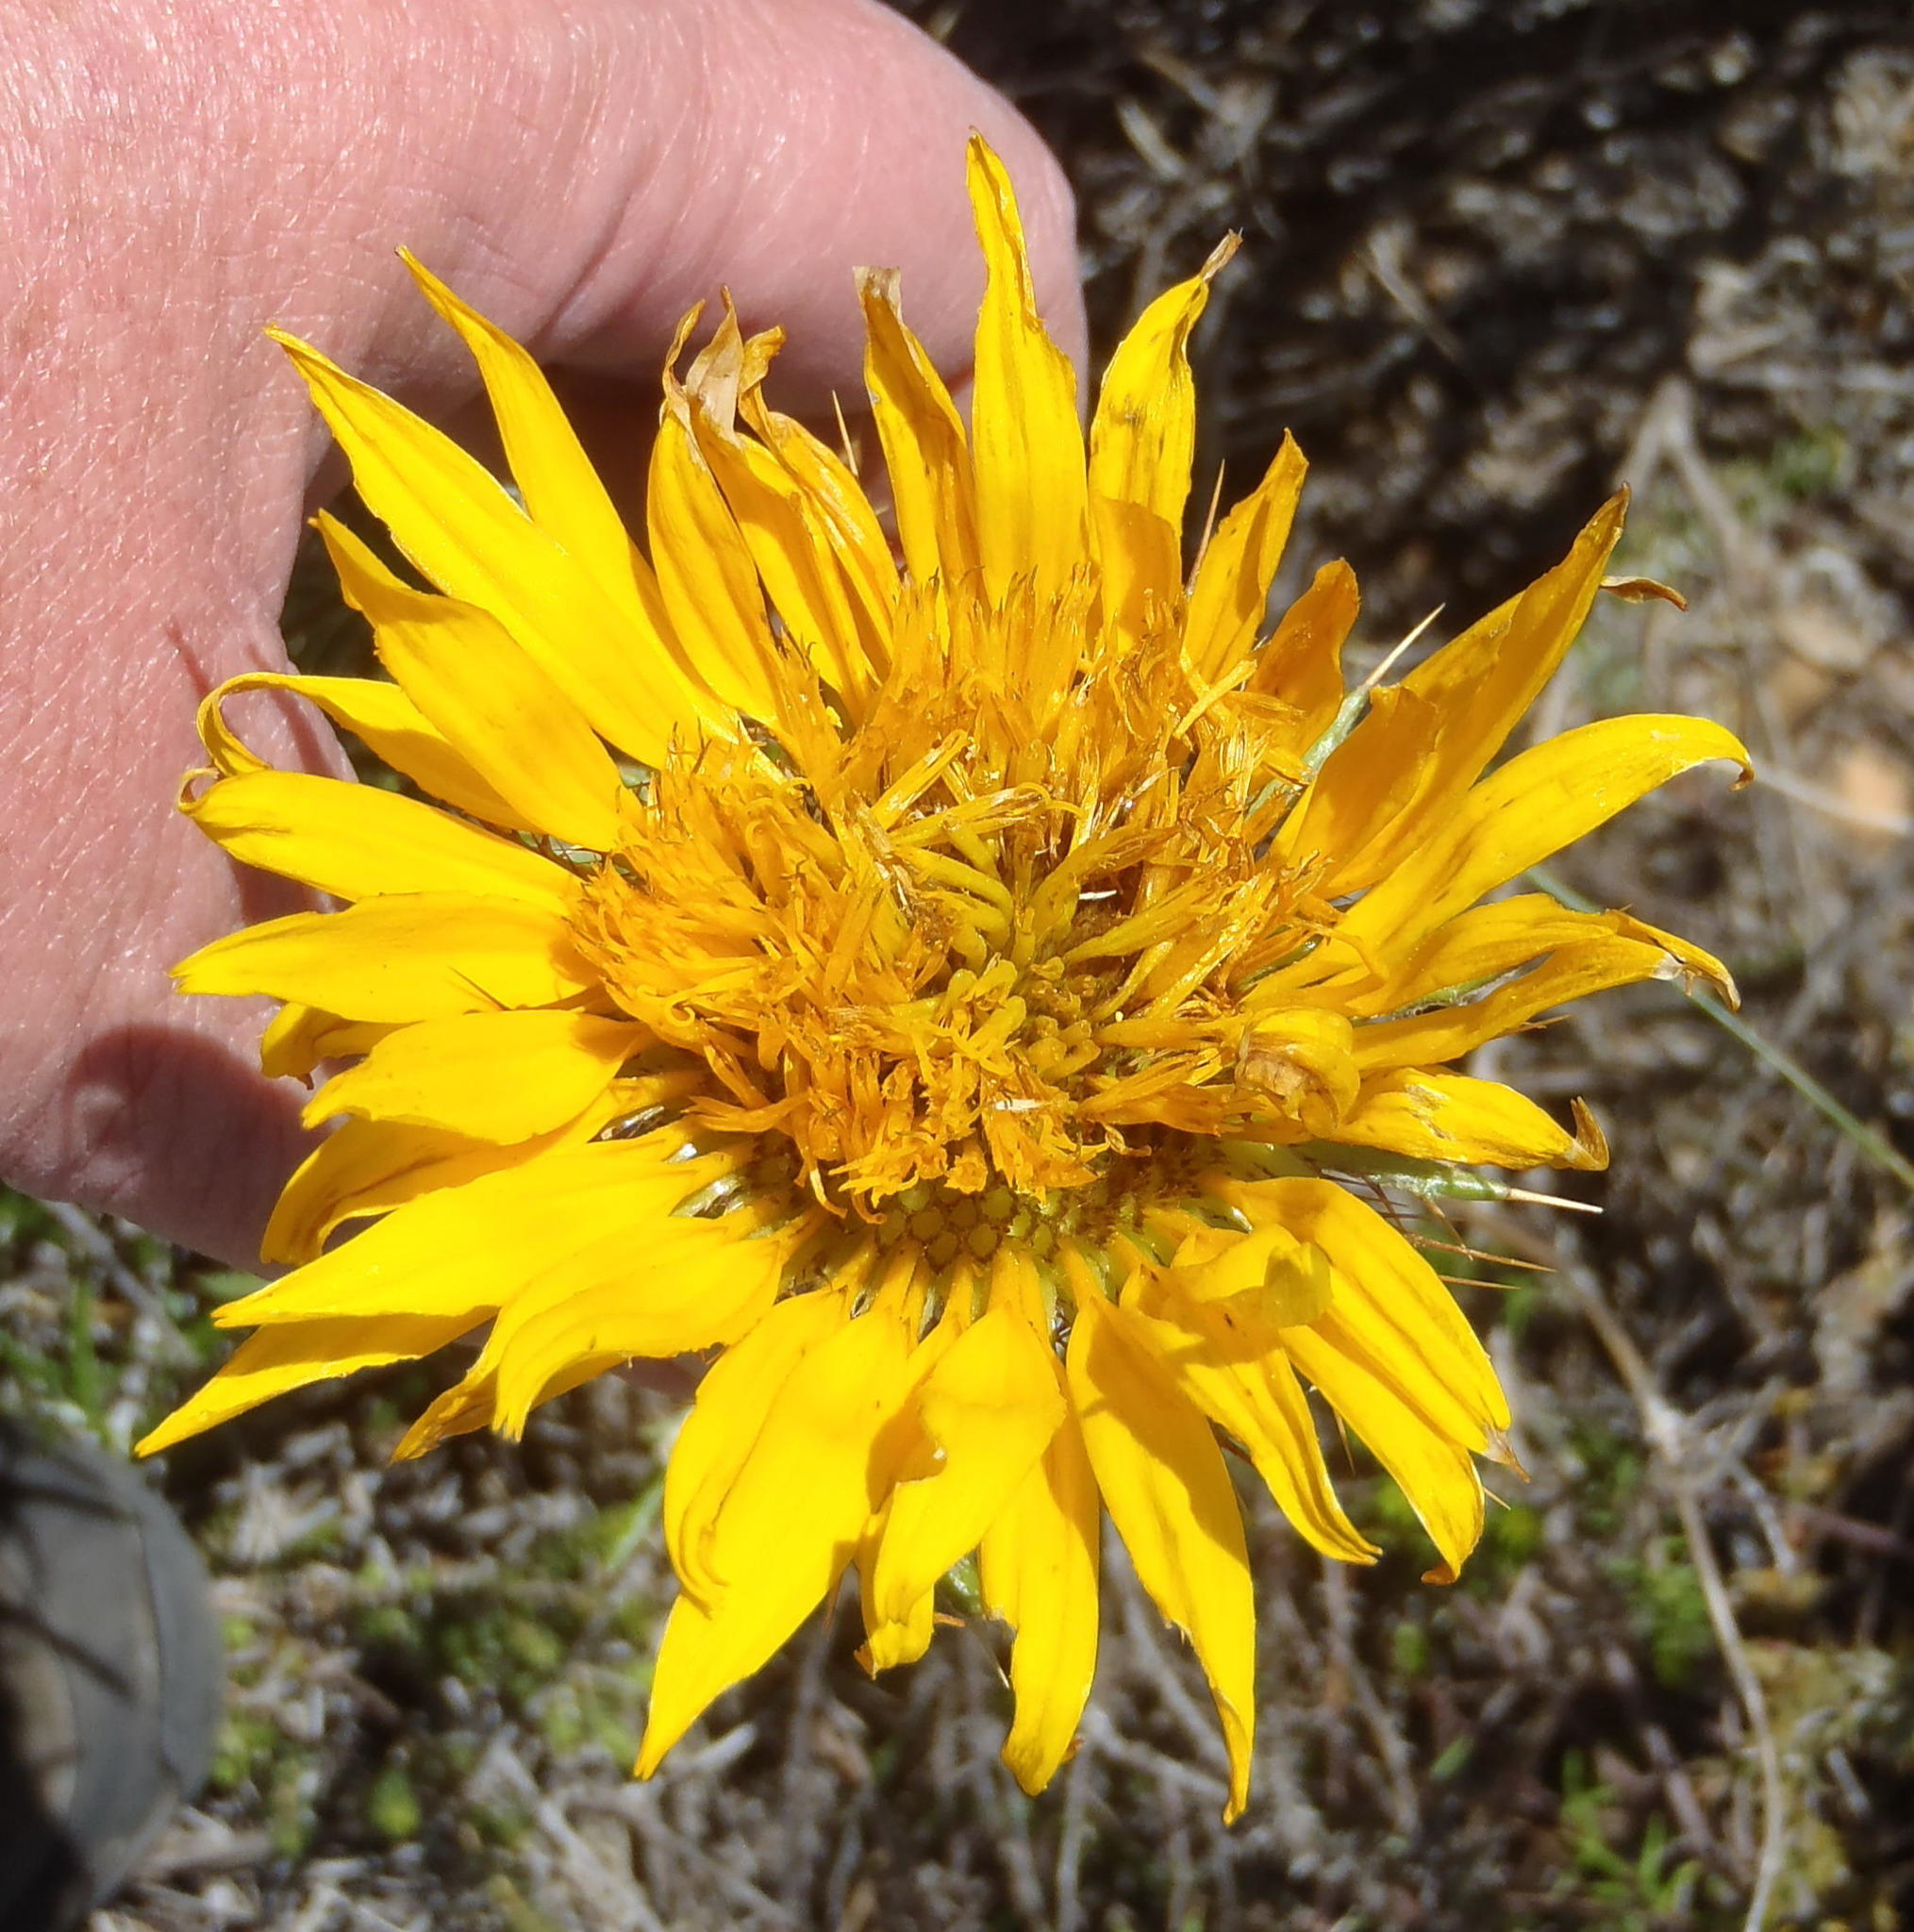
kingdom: Plantae
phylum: Tracheophyta
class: Magnoliopsida
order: Asterales
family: Asteraceae
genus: Berkheya
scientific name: Berkheya angustifolia
